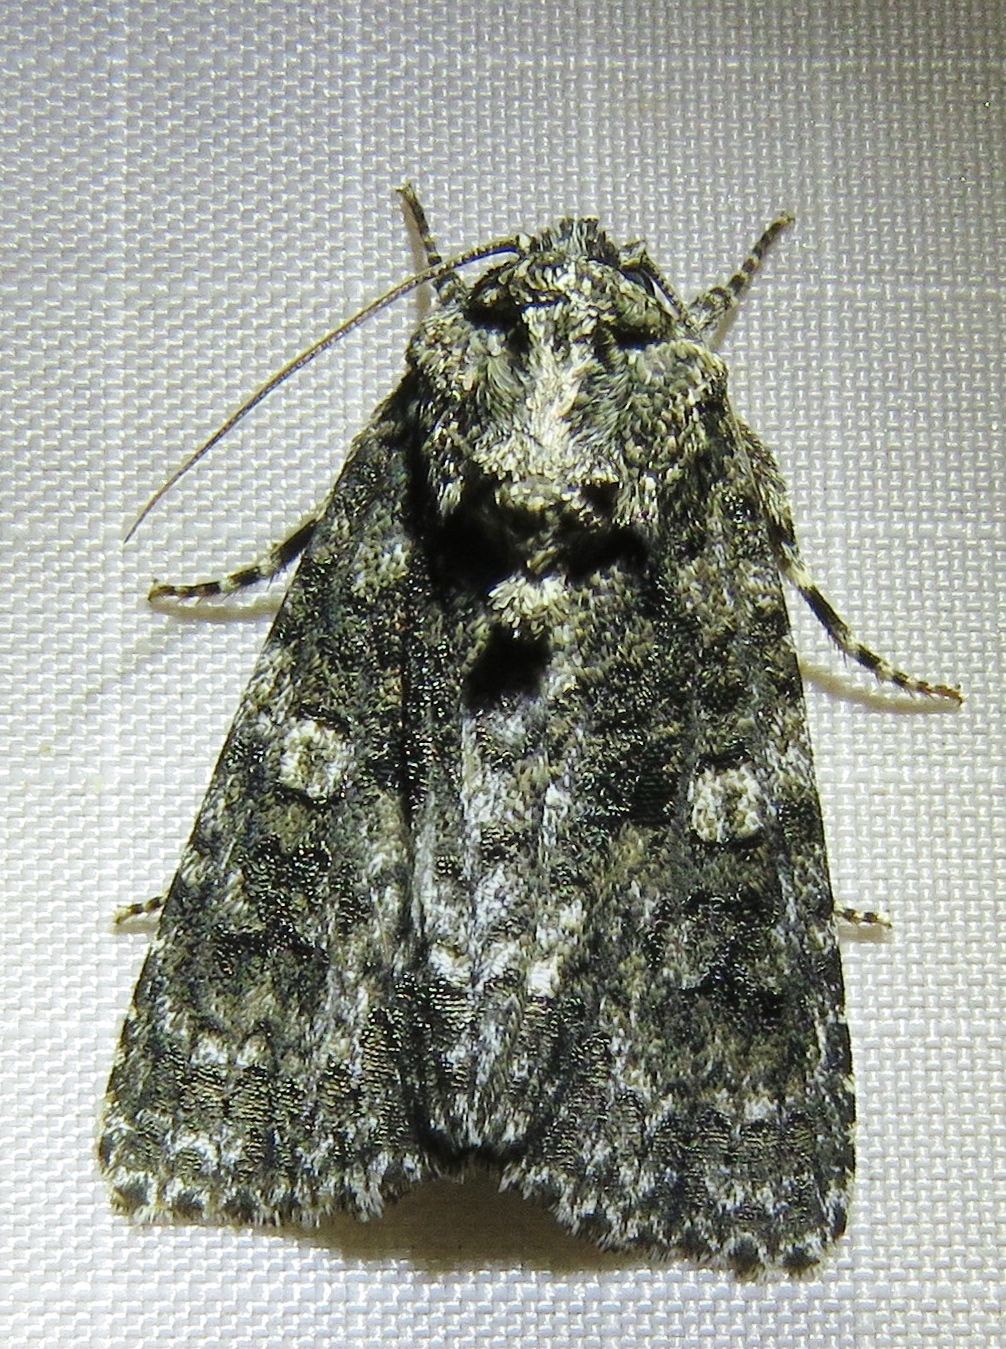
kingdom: Animalia
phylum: Arthropoda
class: Insecta
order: Lepidoptera
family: Noctuidae
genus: Acronicta
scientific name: Acronicta afflicta
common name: Afflicted dagger moth
